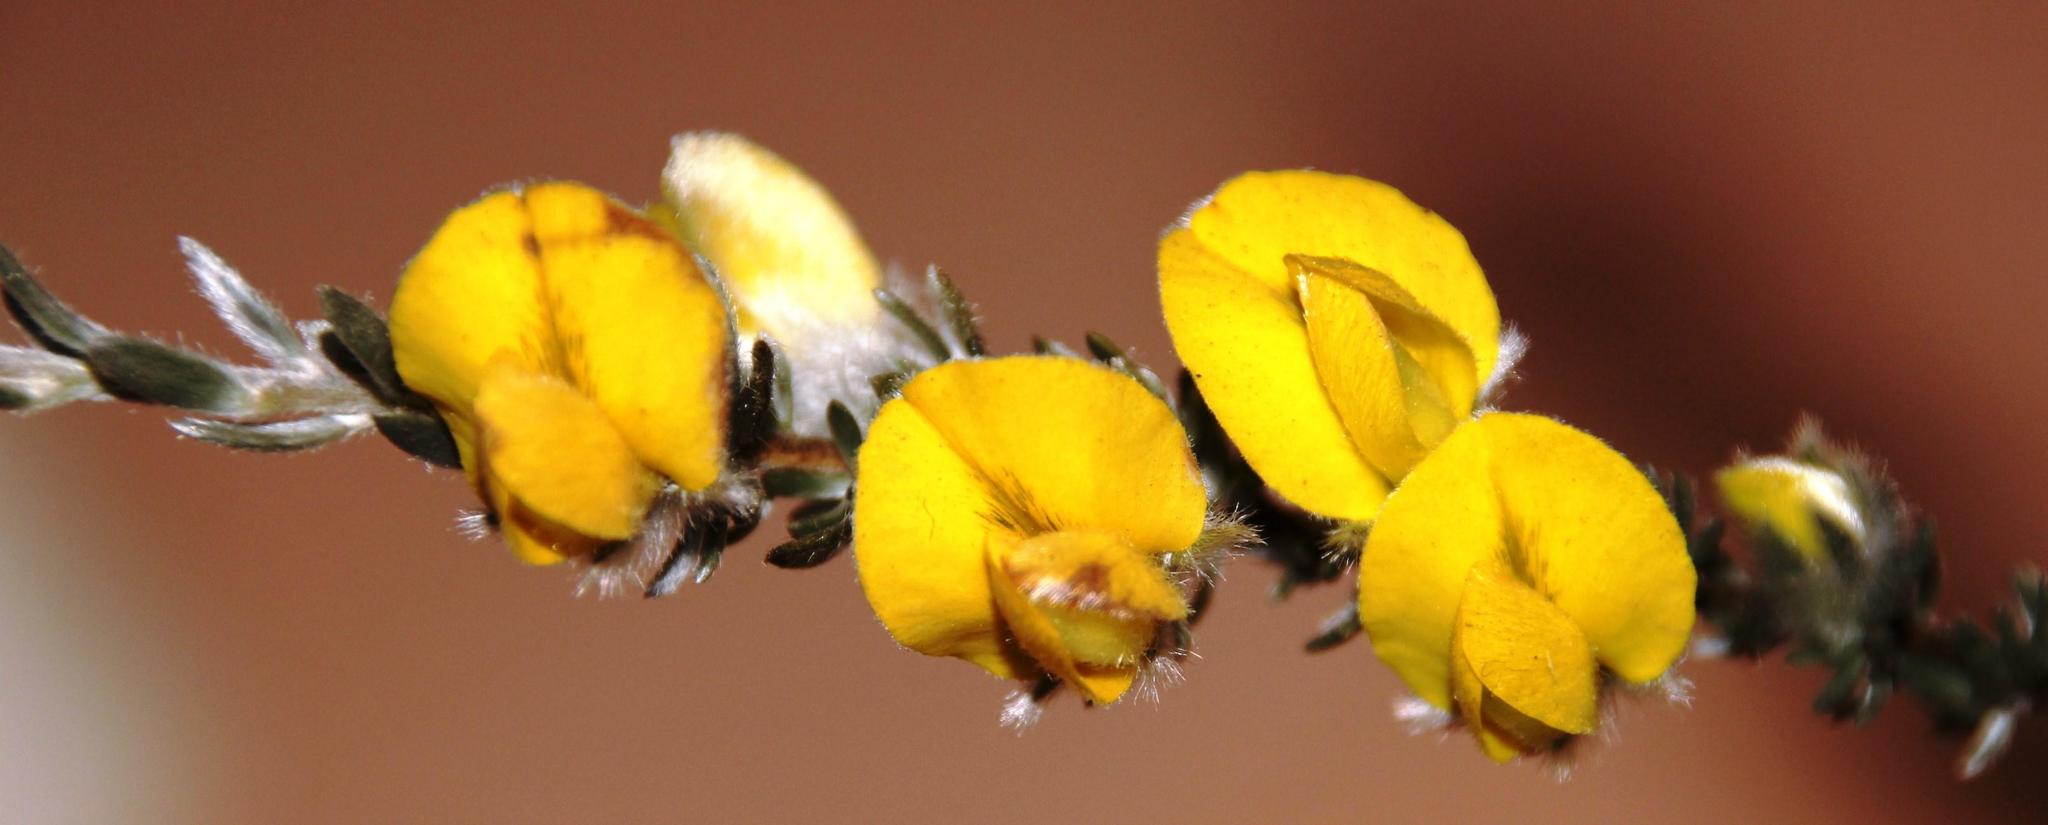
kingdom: Plantae
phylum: Tracheophyta
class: Magnoliopsida
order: Fabales
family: Fabaceae
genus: Aspalathus
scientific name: Aspalathus caledonensis
